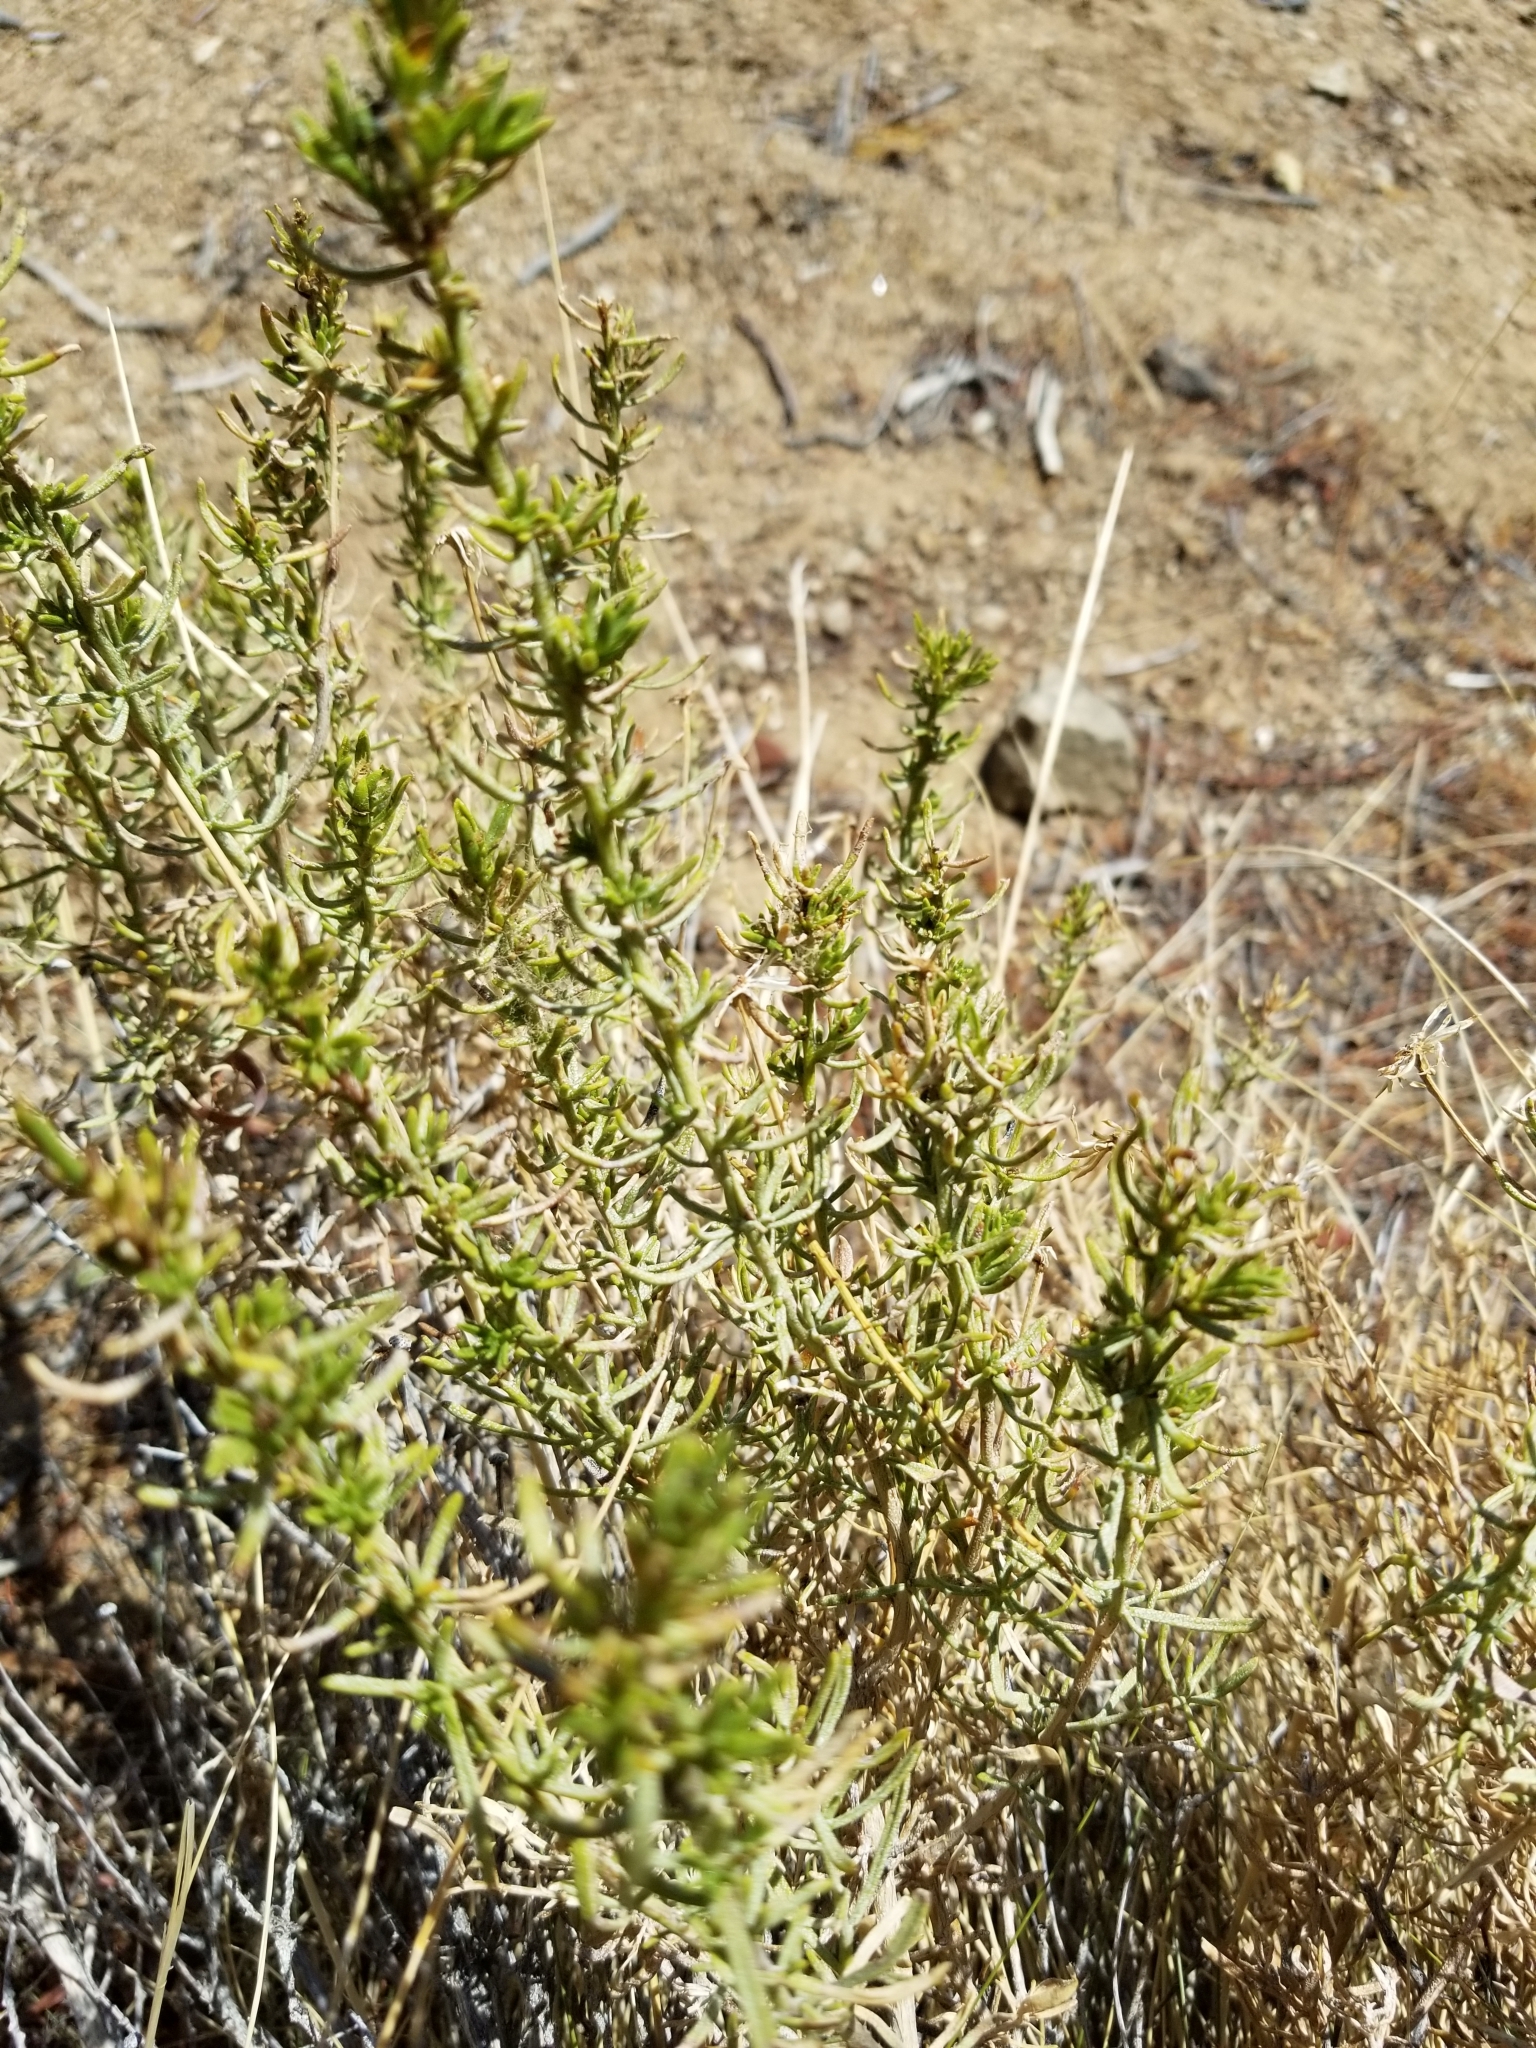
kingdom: Plantae
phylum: Tracheophyta
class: Magnoliopsida
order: Asterales
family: Asteraceae
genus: Ericameria
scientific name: Ericameria linearifolia
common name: Interior goldenbush
